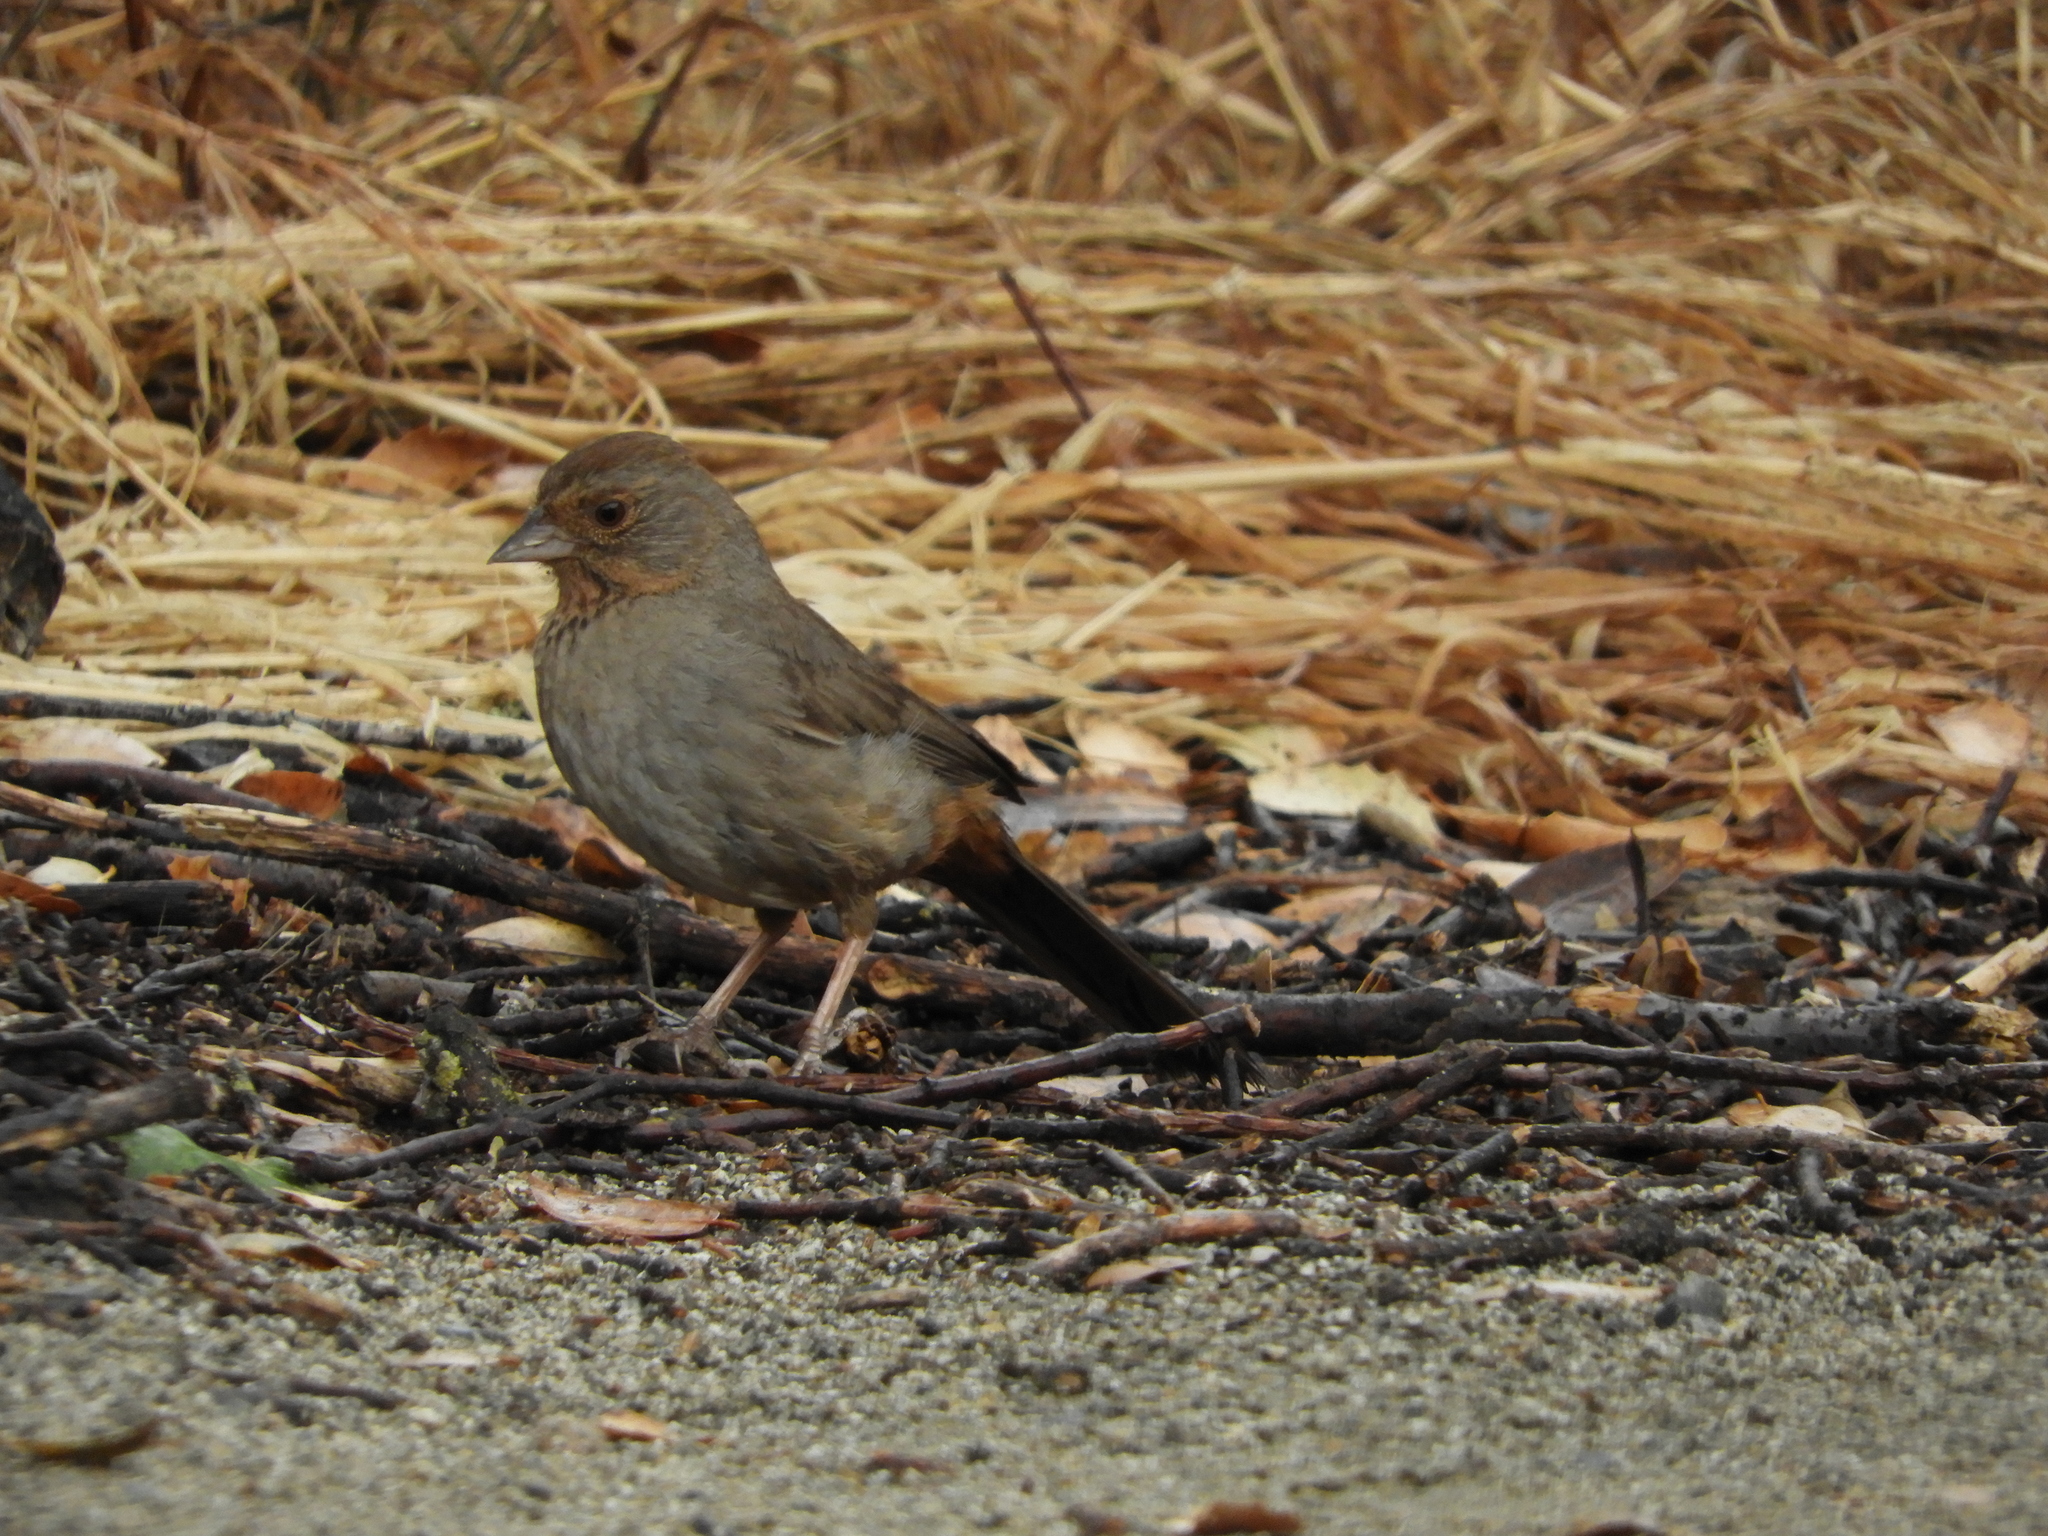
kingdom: Animalia
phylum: Chordata
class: Aves
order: Passeriformes
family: Passerellidae
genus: Melozone
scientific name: Melozone crissalis
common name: California towhee
